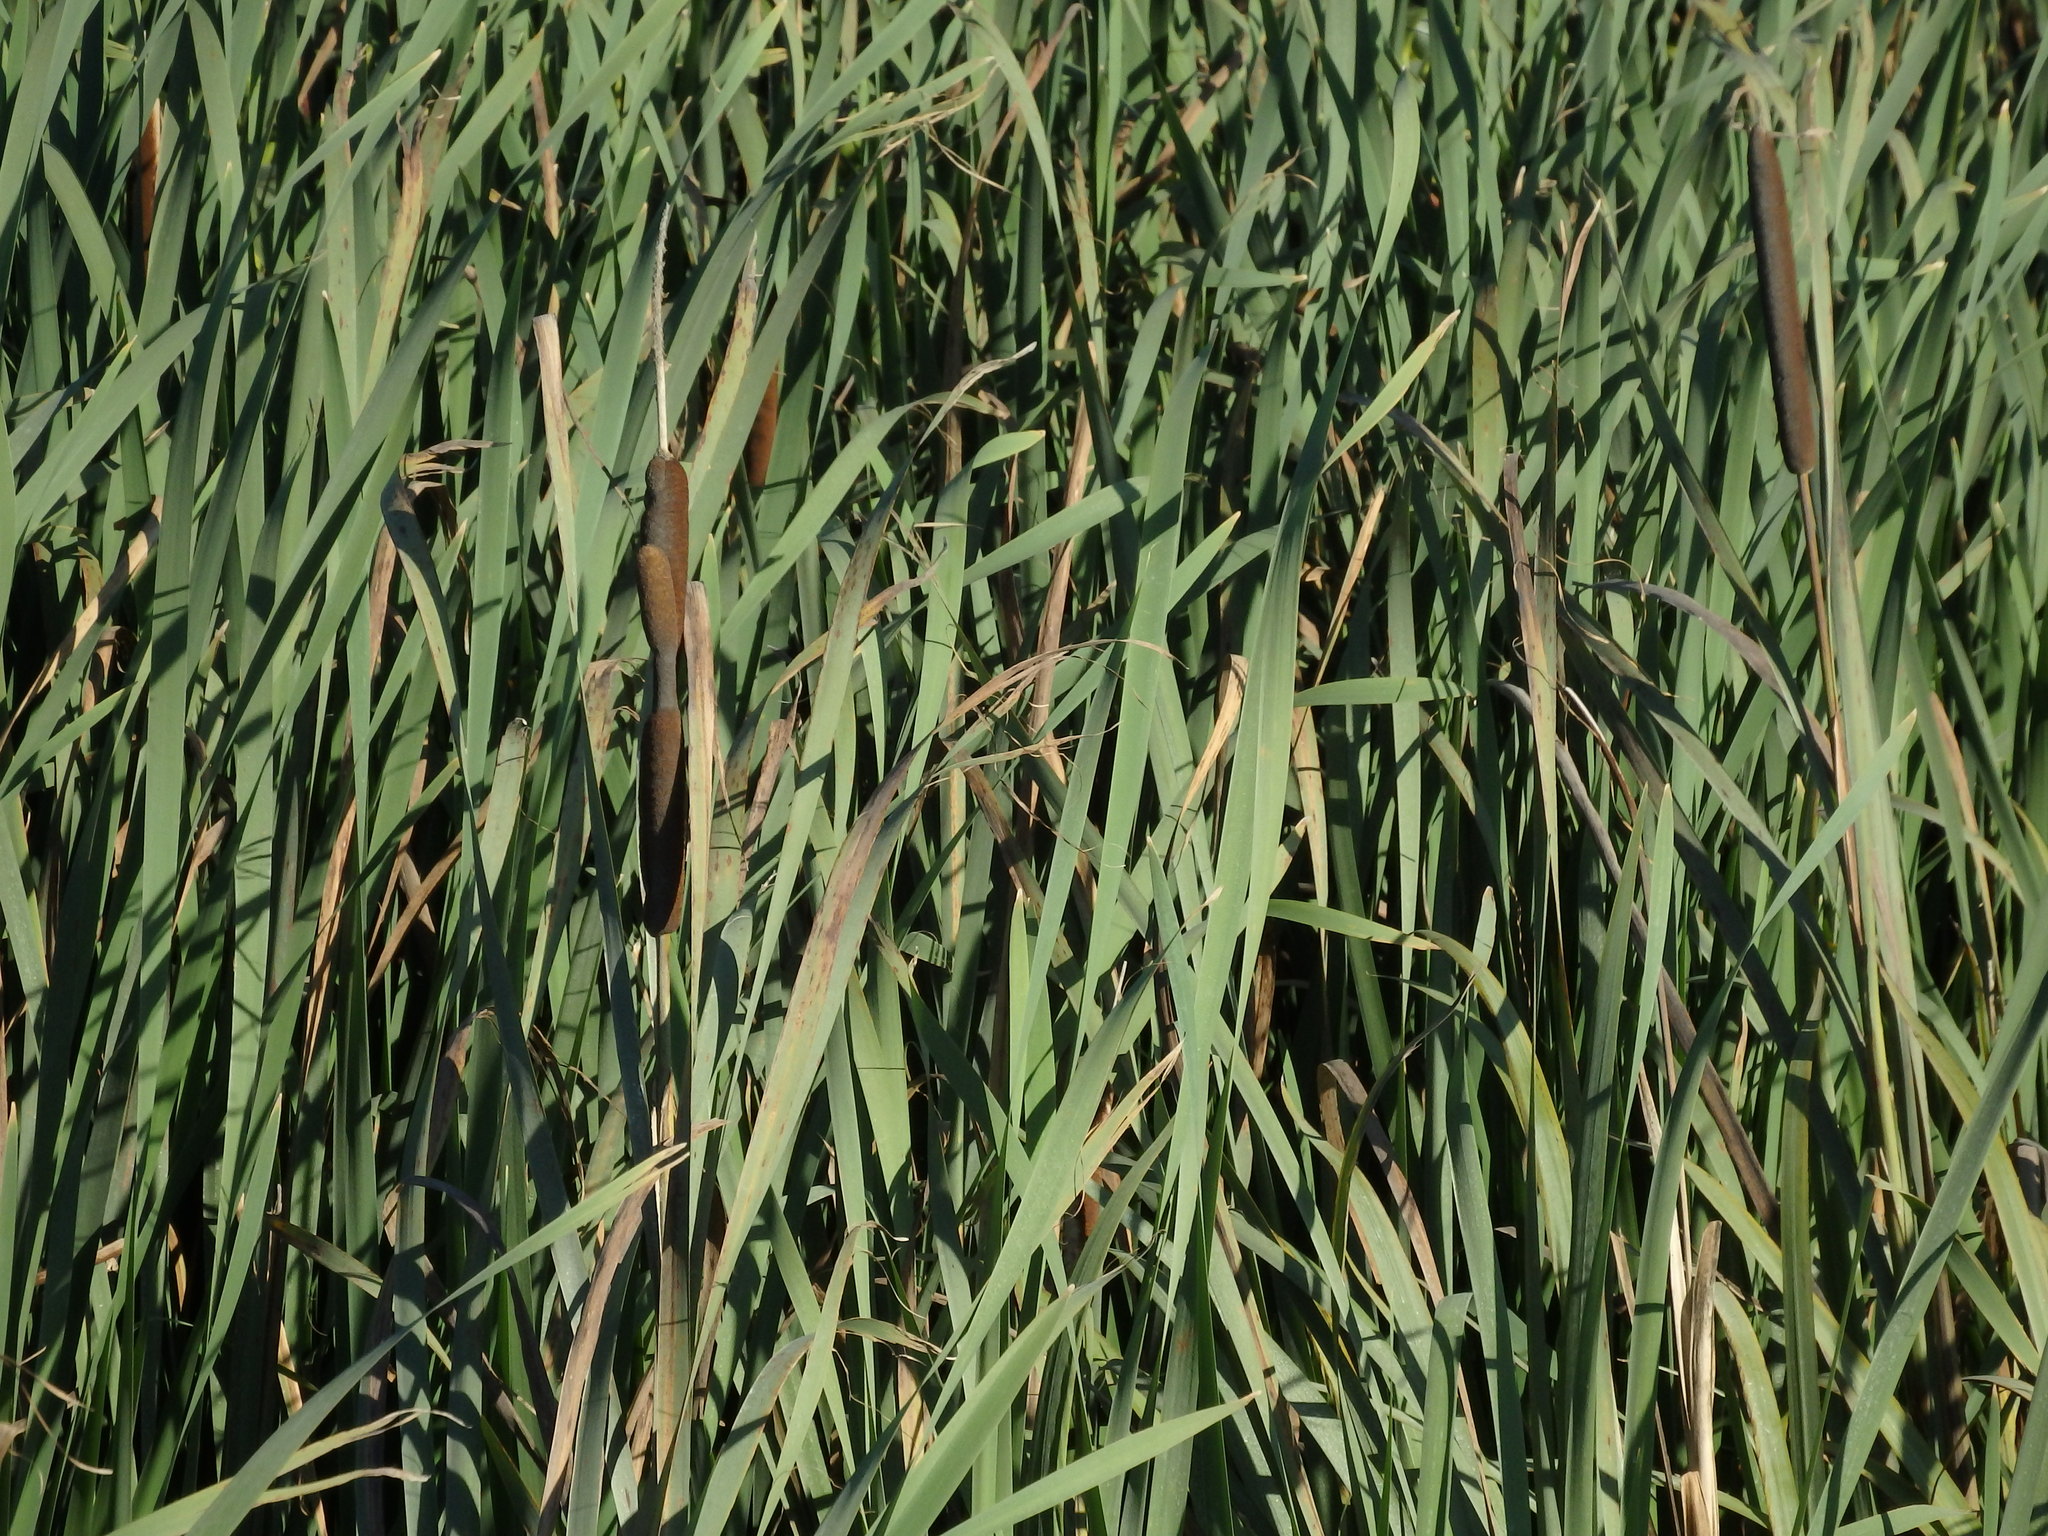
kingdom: Plantae
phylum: Tracheophyta
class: Liliopsida
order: Poales
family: Typhaceae
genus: Typha
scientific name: Typha latifolia
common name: Broadleaf cattail
